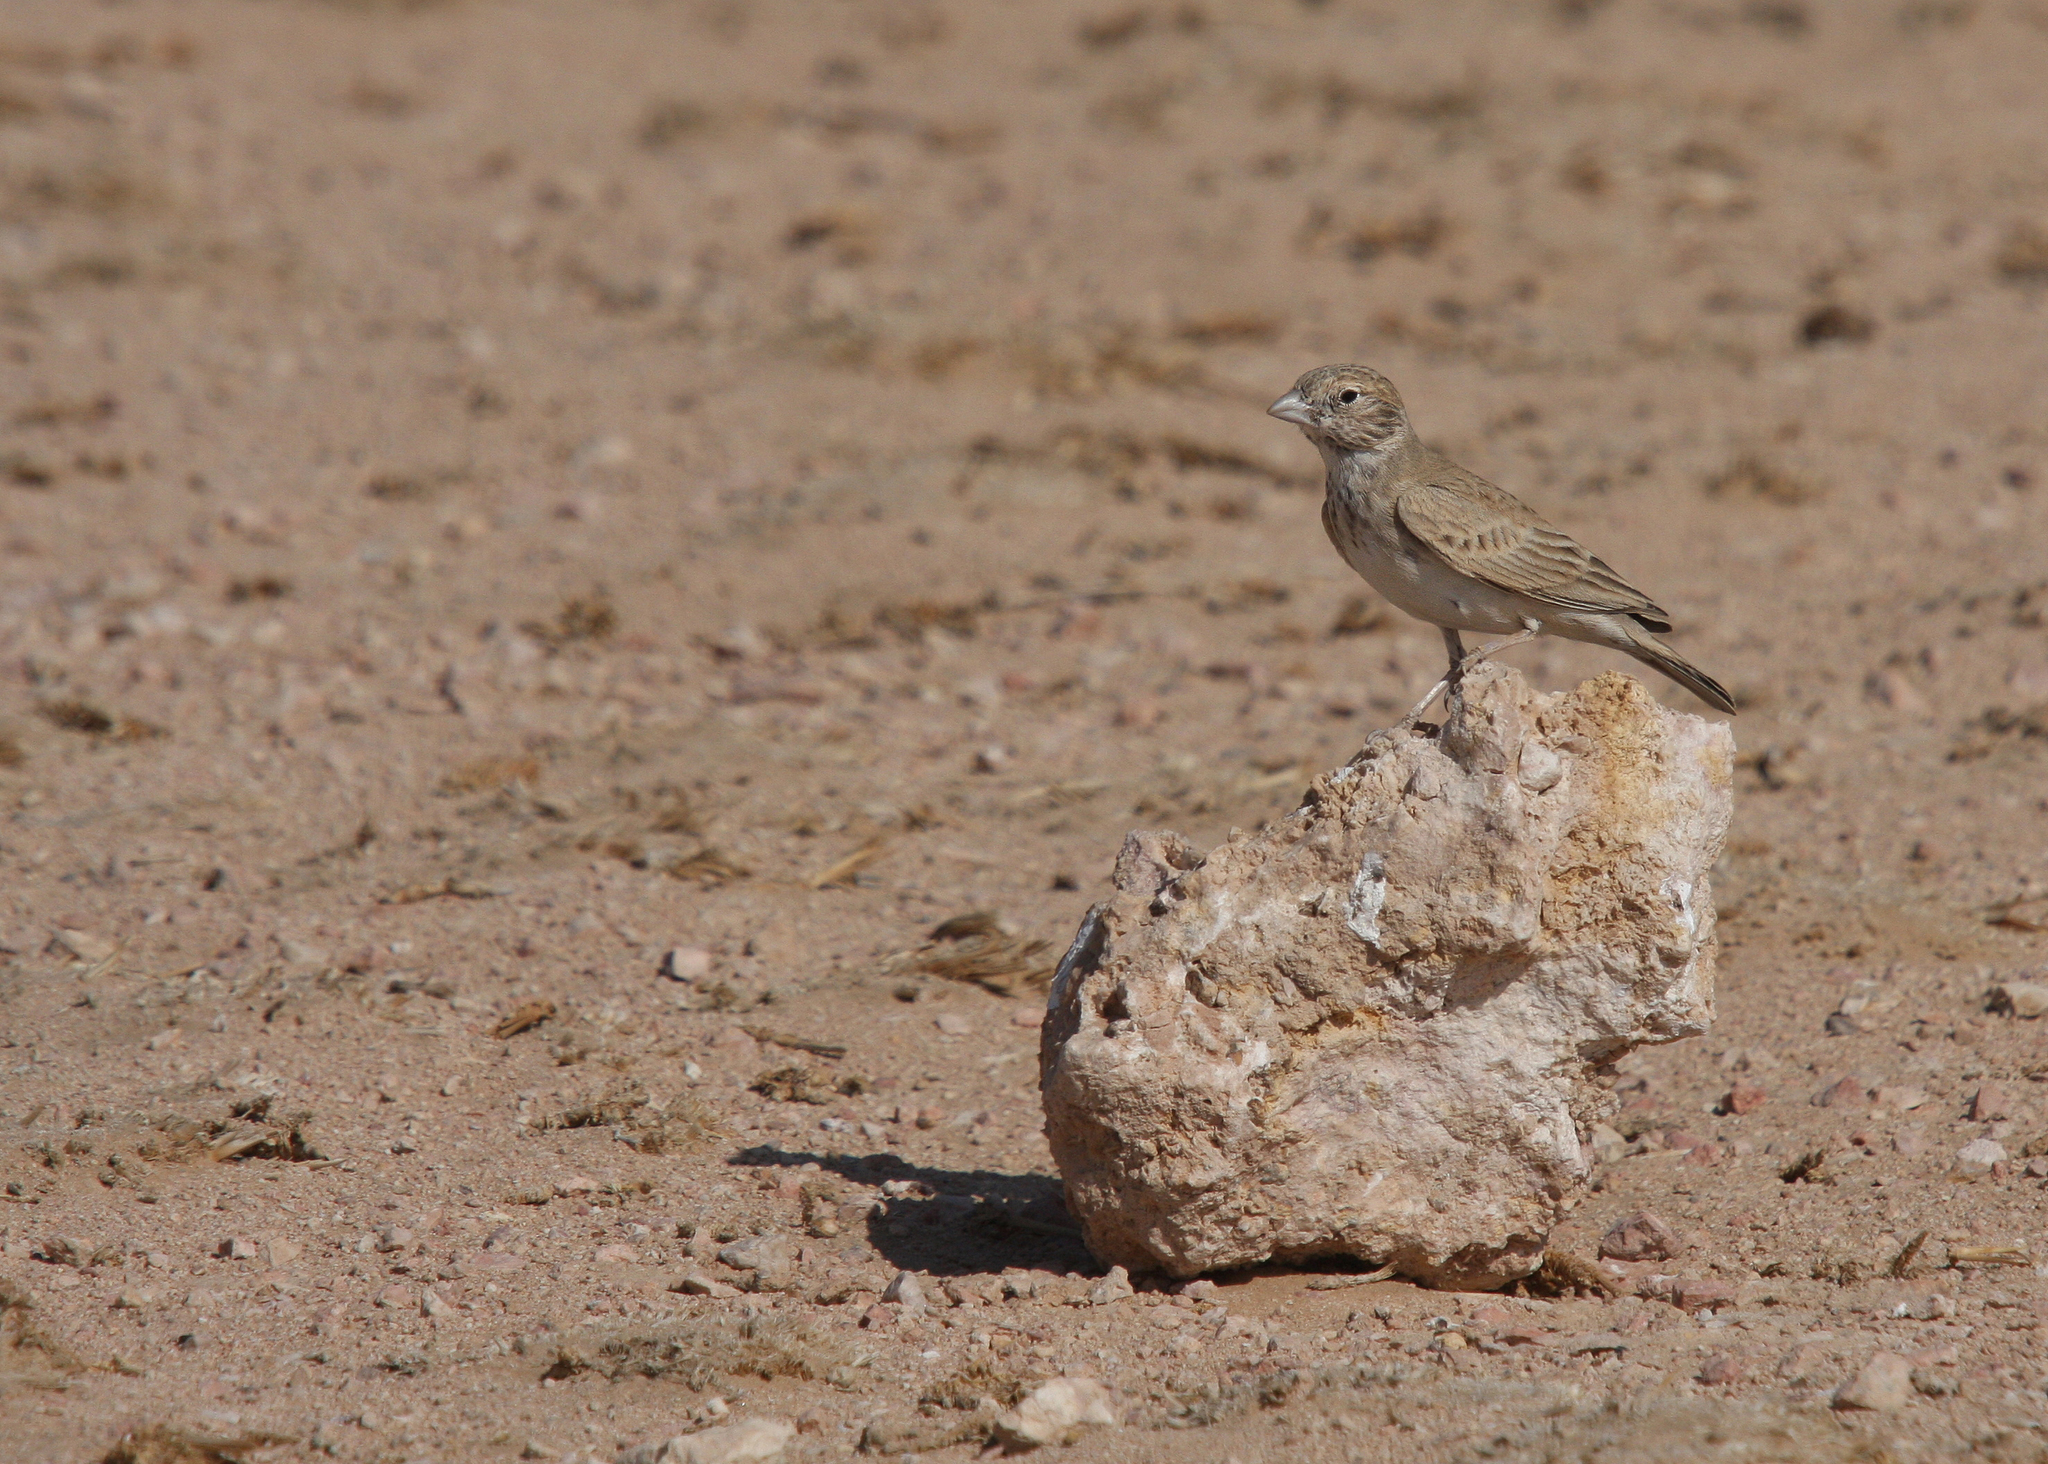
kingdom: Animalia
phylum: Chordata
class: Aves
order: Passeriformes
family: Alaudidae
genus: Eremopterix
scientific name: Eremopterix nigriceps
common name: Black-crowned sparrow-lark
